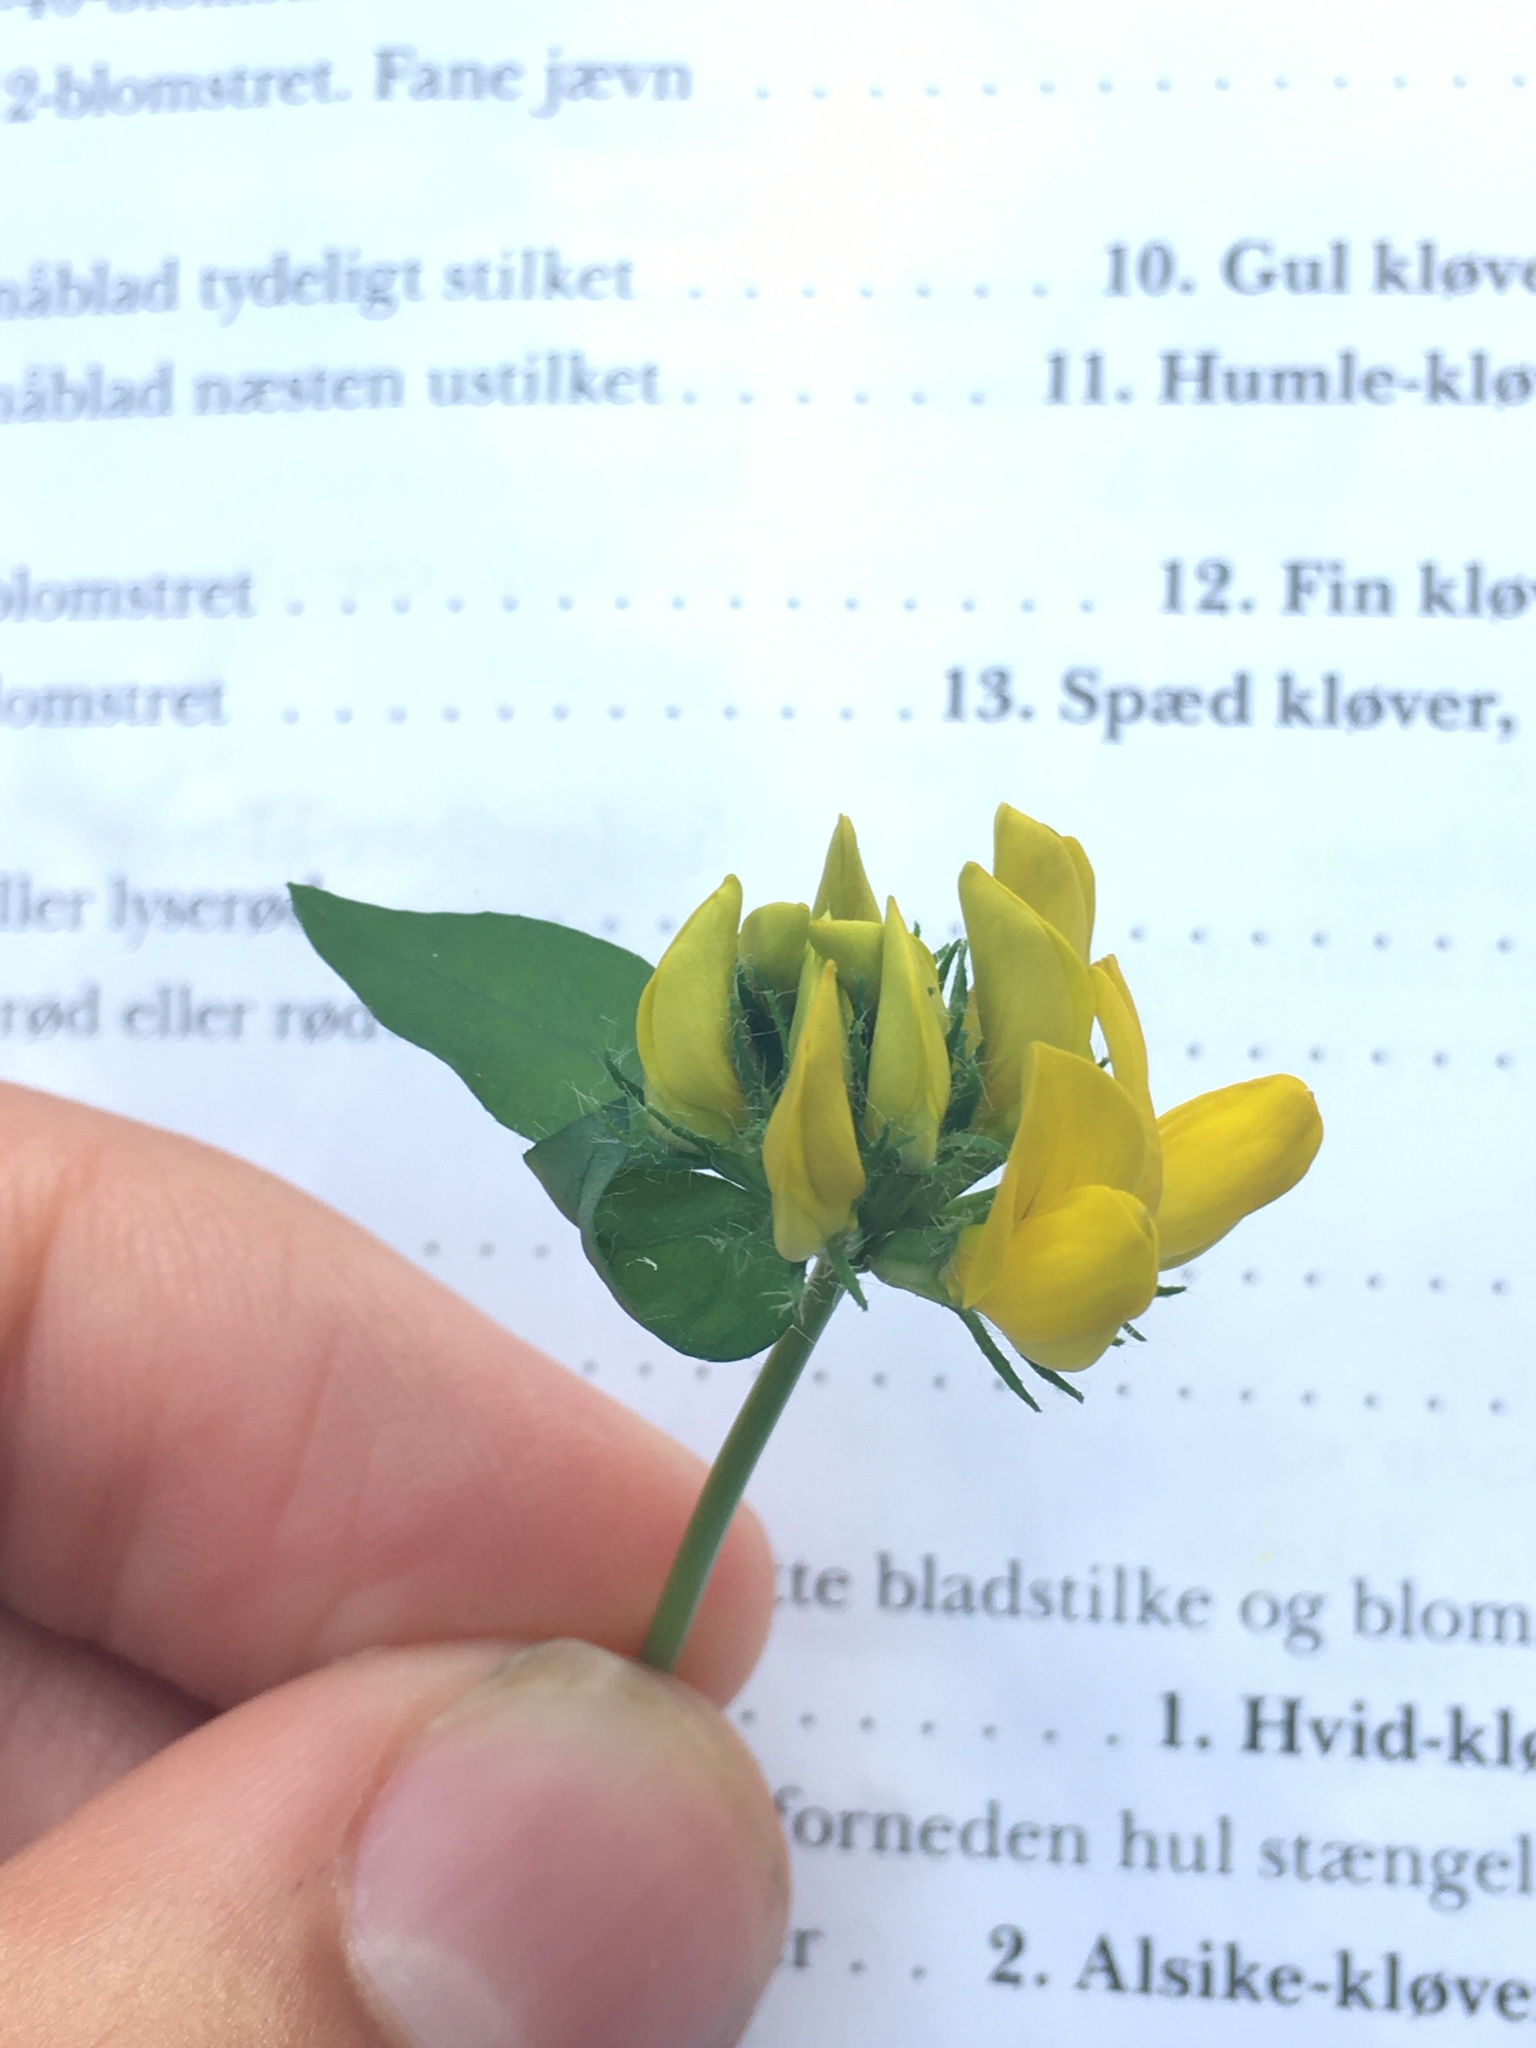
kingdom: Plantae
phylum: Tracheophyta
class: Magnoliopsida
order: Fabales
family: Fabaceae
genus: Lotus
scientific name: Lotus pedunculatus
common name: Greater birdsfoot-trefoil
